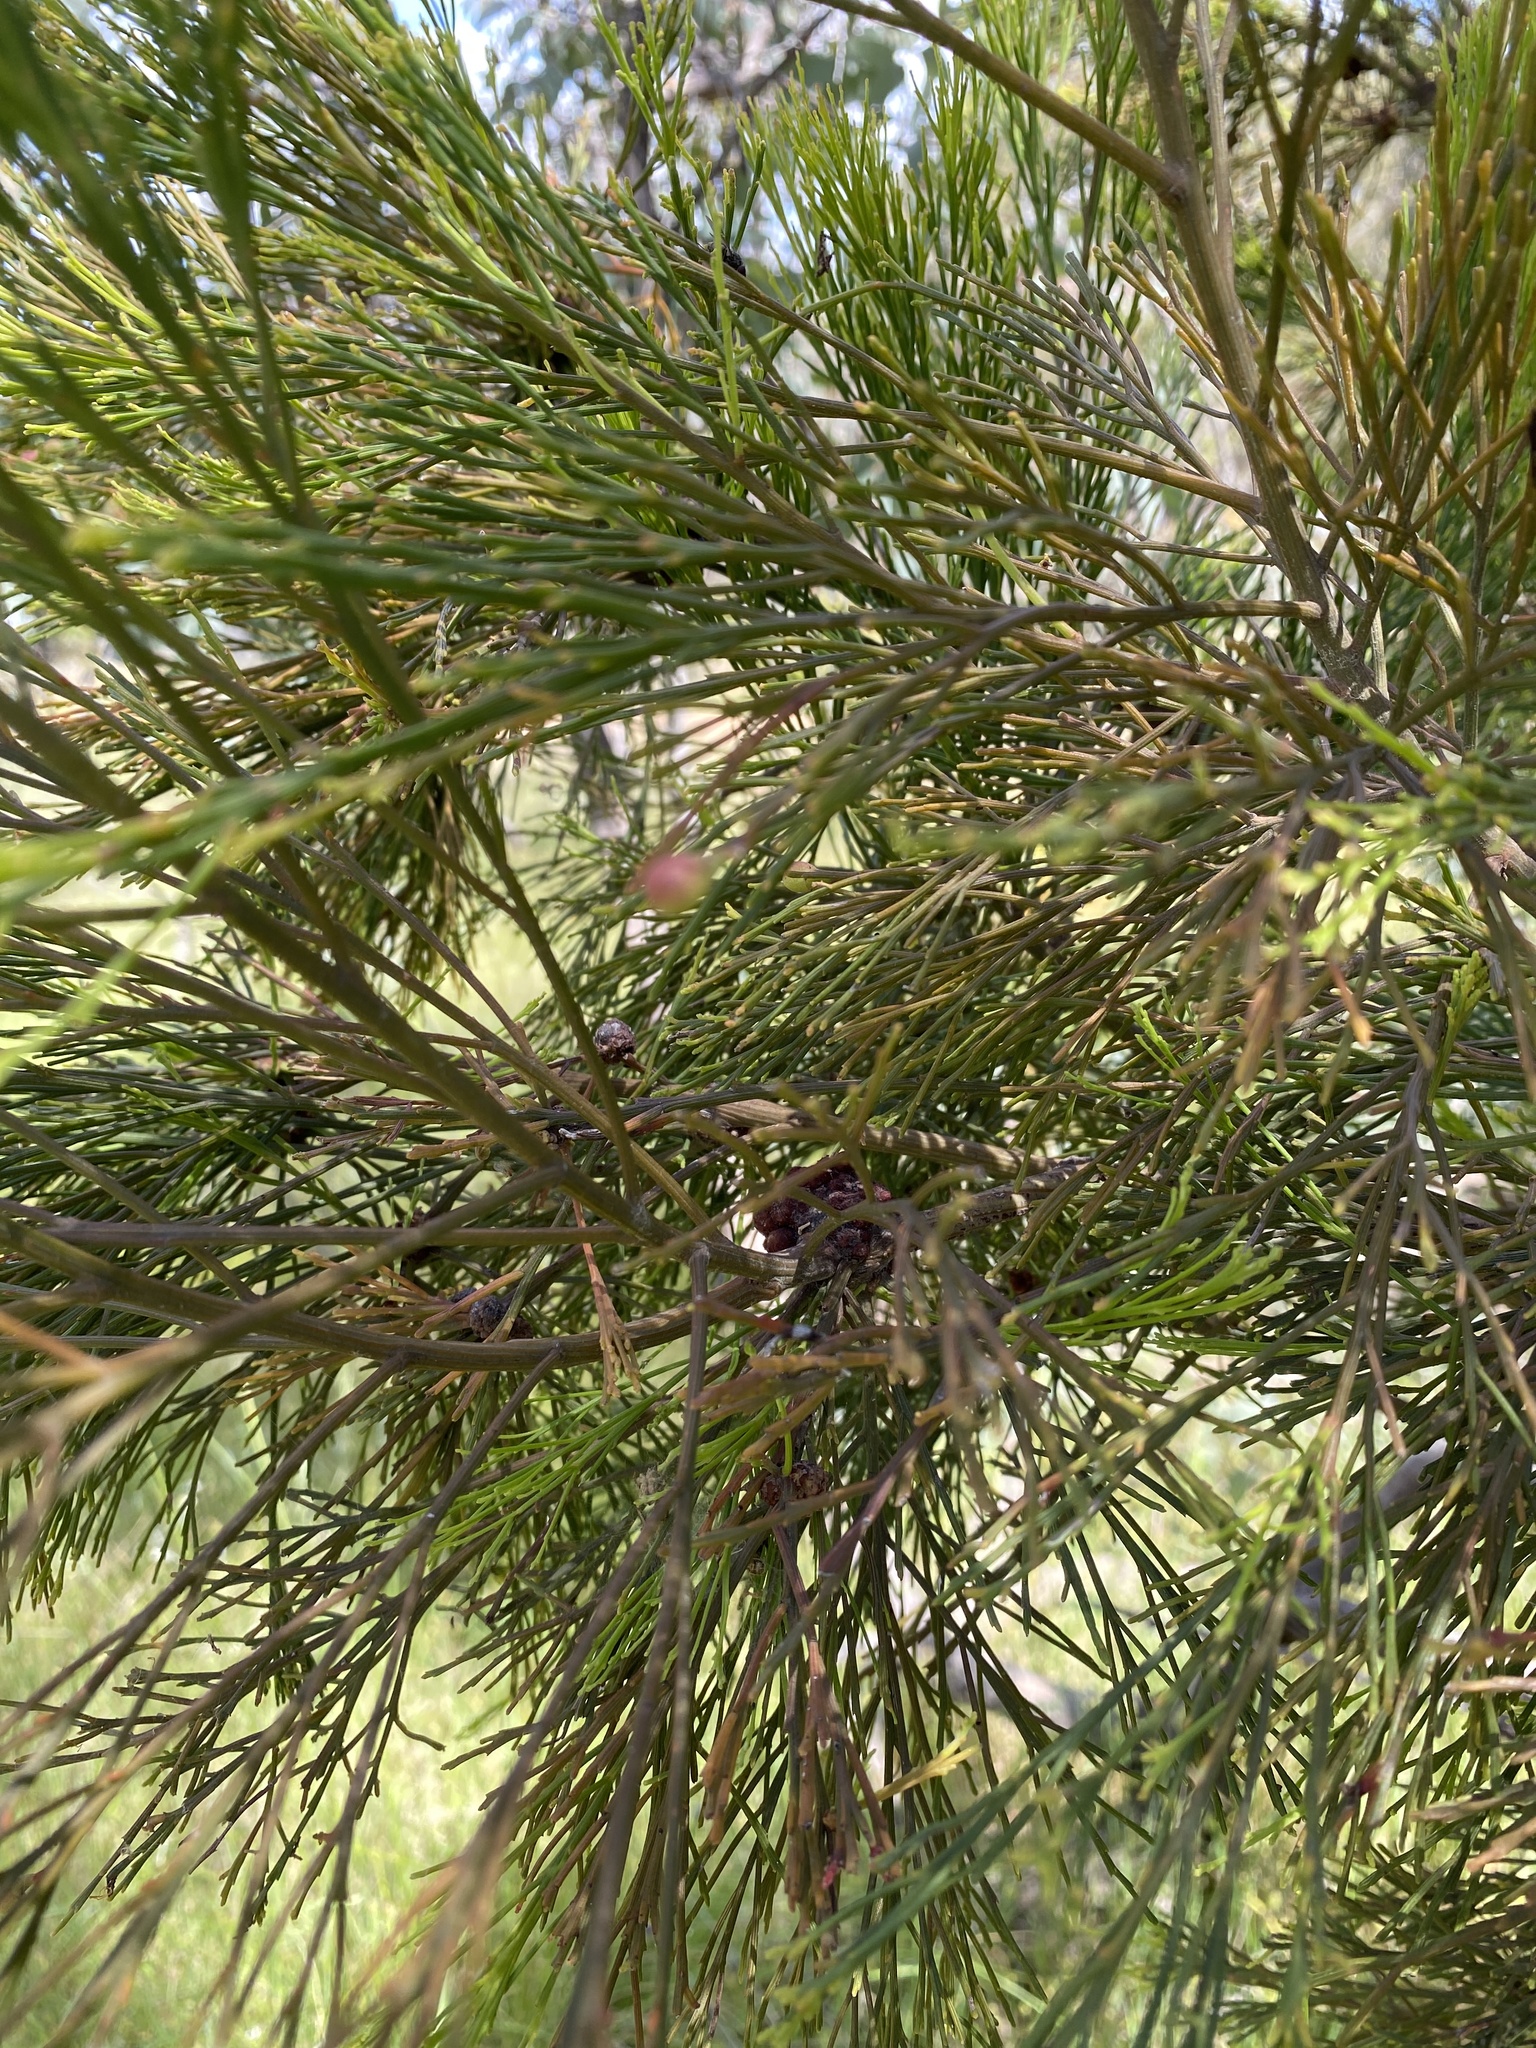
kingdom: Plantae
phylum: Tracheophyta
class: Magnoliopsida
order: Santalales
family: Santalaceae
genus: Exocarpos
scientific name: Exocarpos cupressiformis
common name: Cherry ballart
